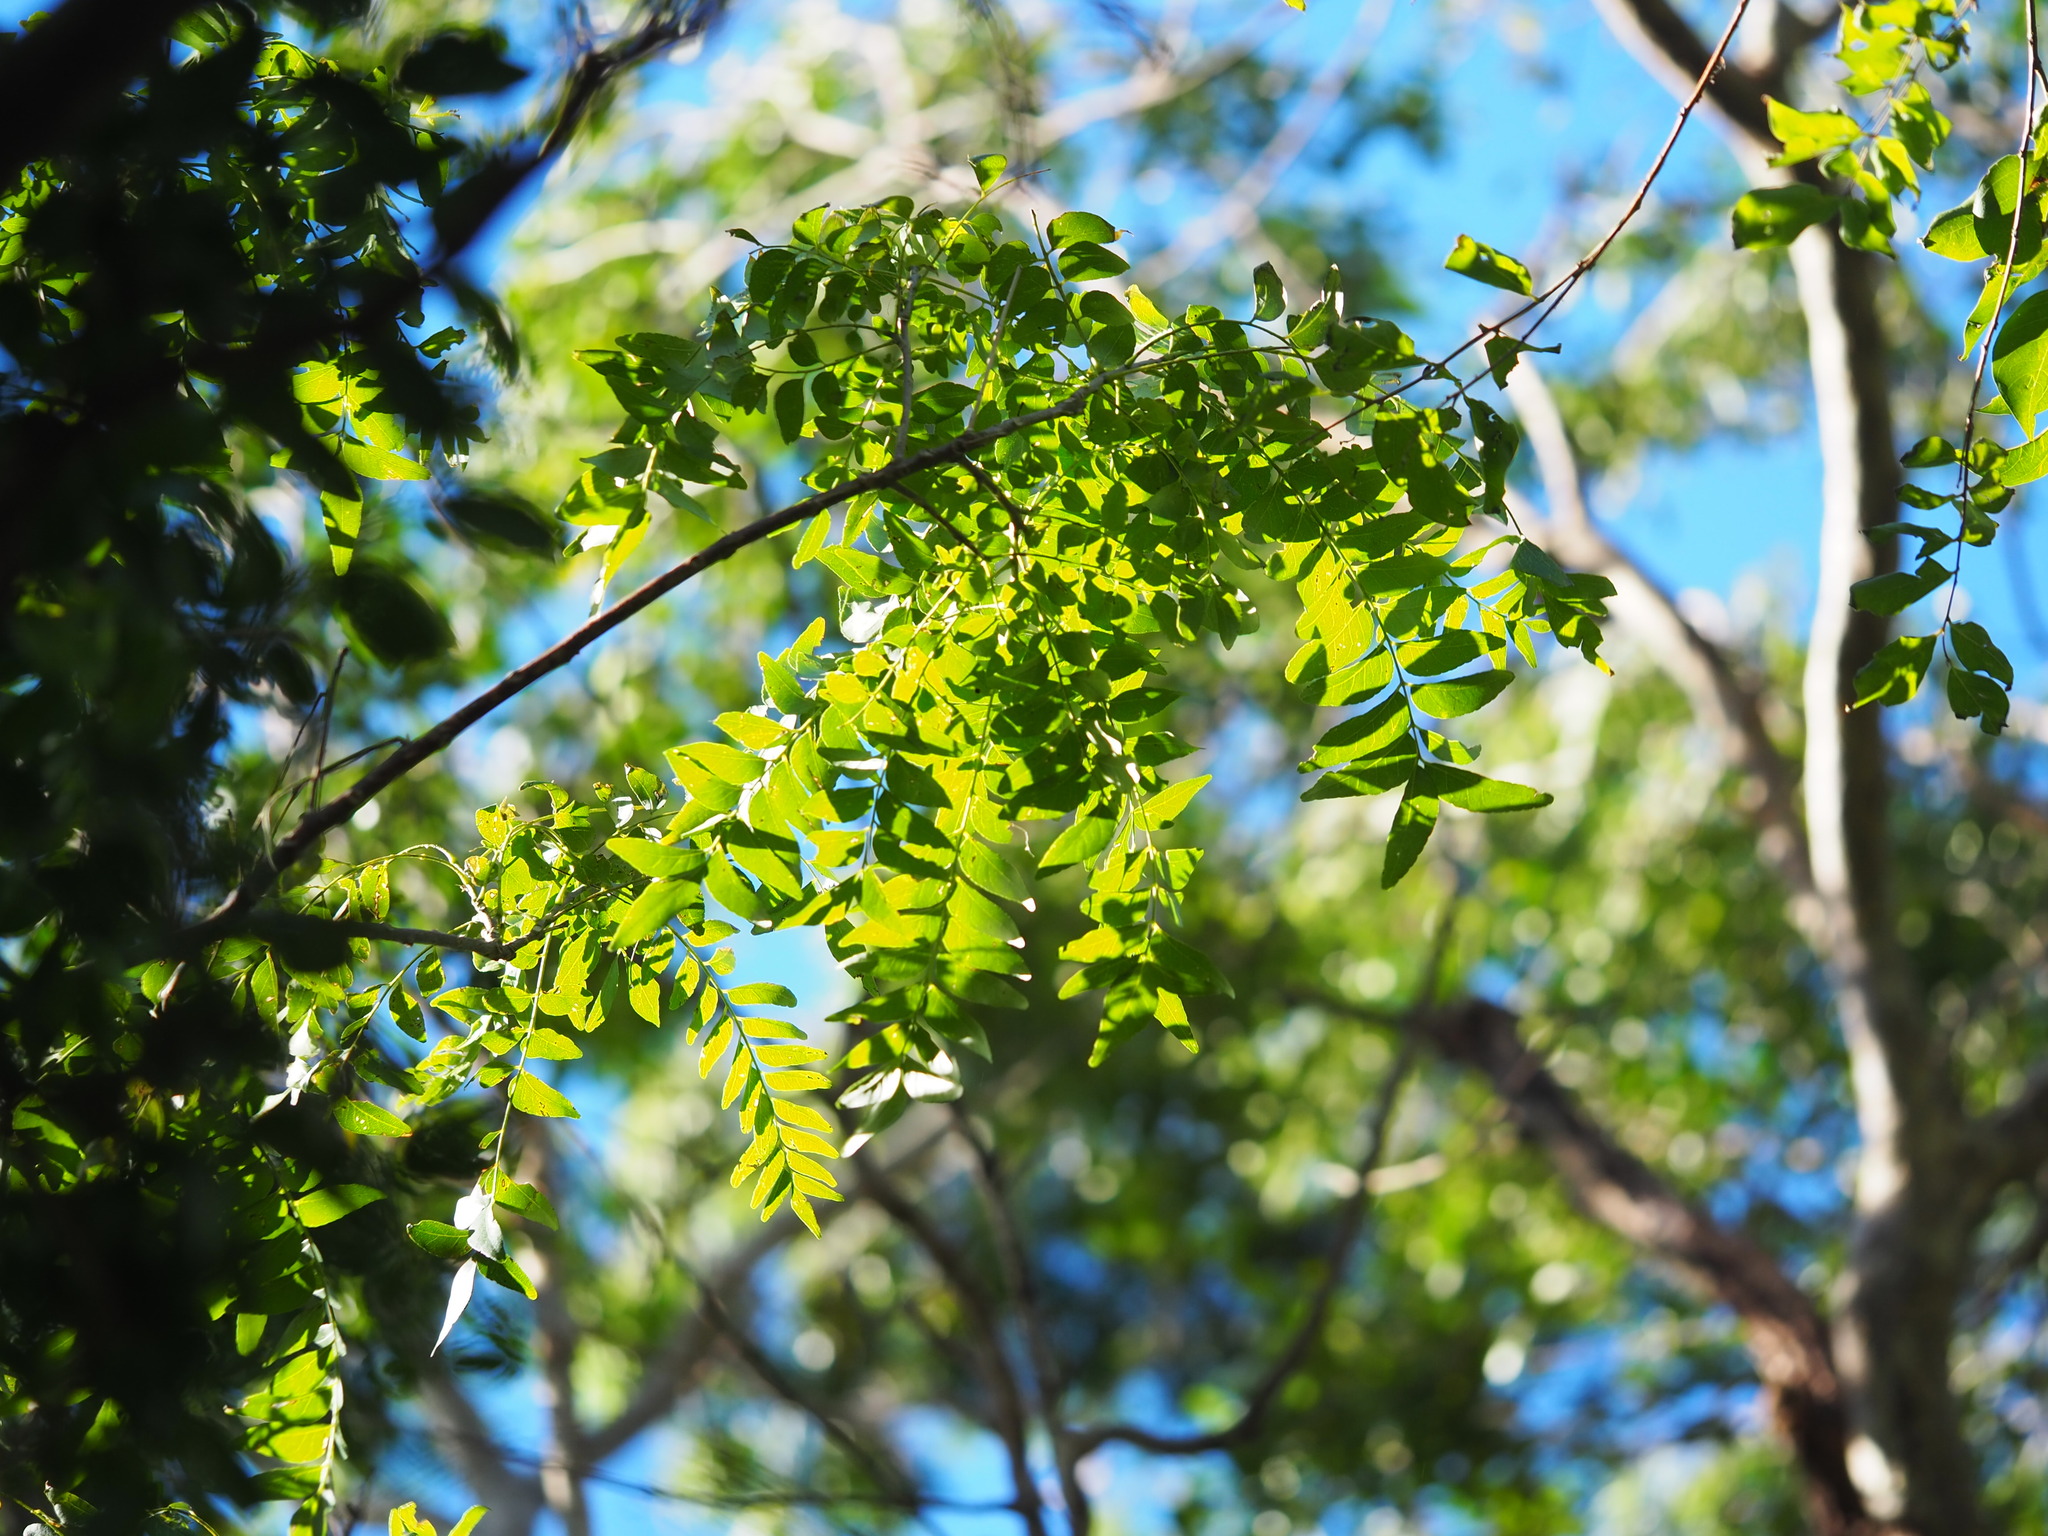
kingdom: Plantae
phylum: Tracheophyta
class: Magnoliopsida
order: Sapindales
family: Rutaceae
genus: Clausena
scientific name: Clausena excavata
